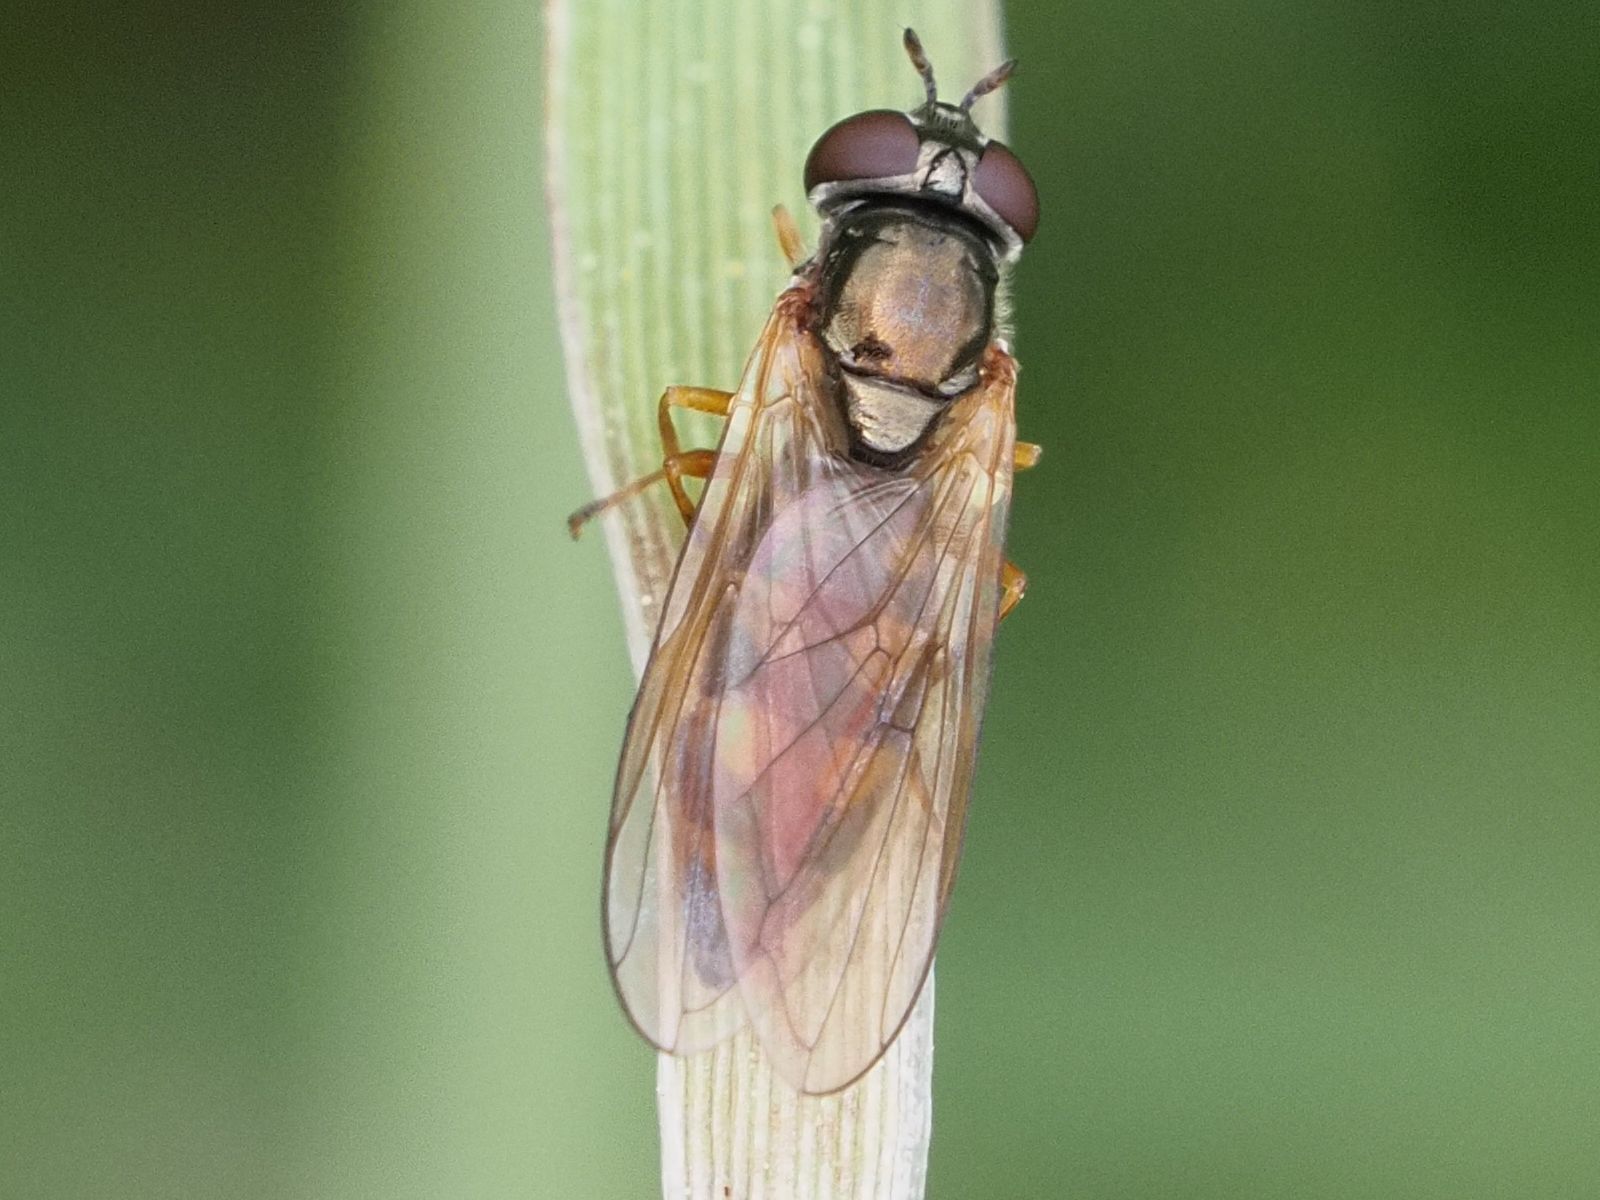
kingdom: Animalia
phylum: Arthropoda
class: Insecta
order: Diptera
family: Syrphidae
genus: Melanostoma
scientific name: Melanostoma mellina
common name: Hover fly
